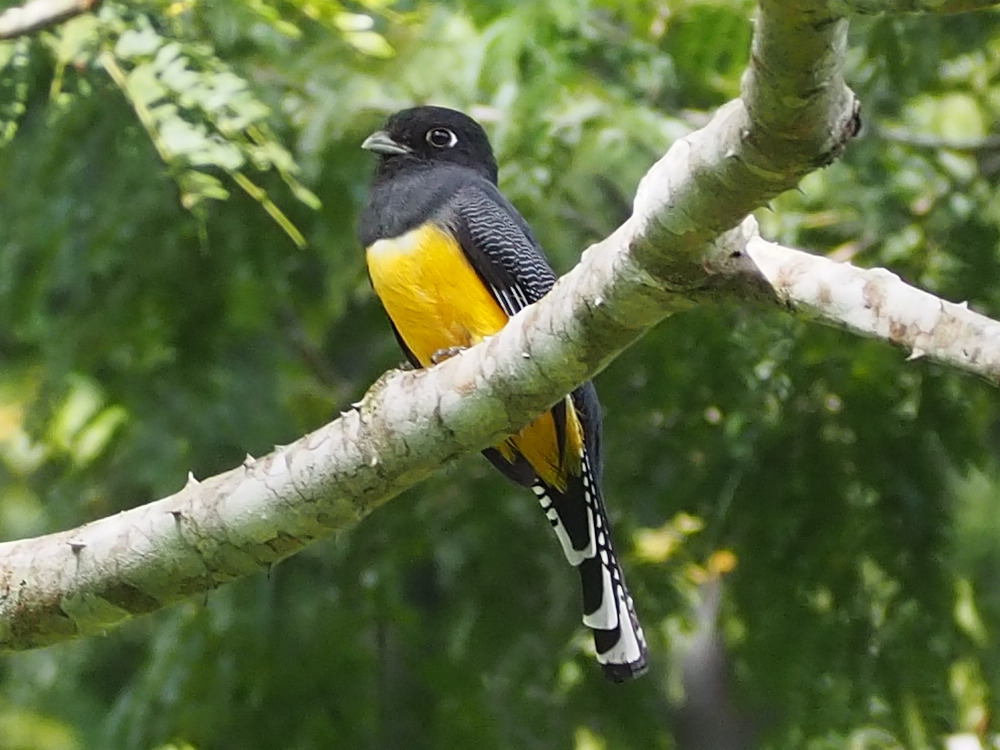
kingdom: Animalia
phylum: Chordata
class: Aves
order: Trogoniformes
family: Trogonidae
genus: Trogon
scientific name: Trogon caligatus
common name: Gartered trogon
